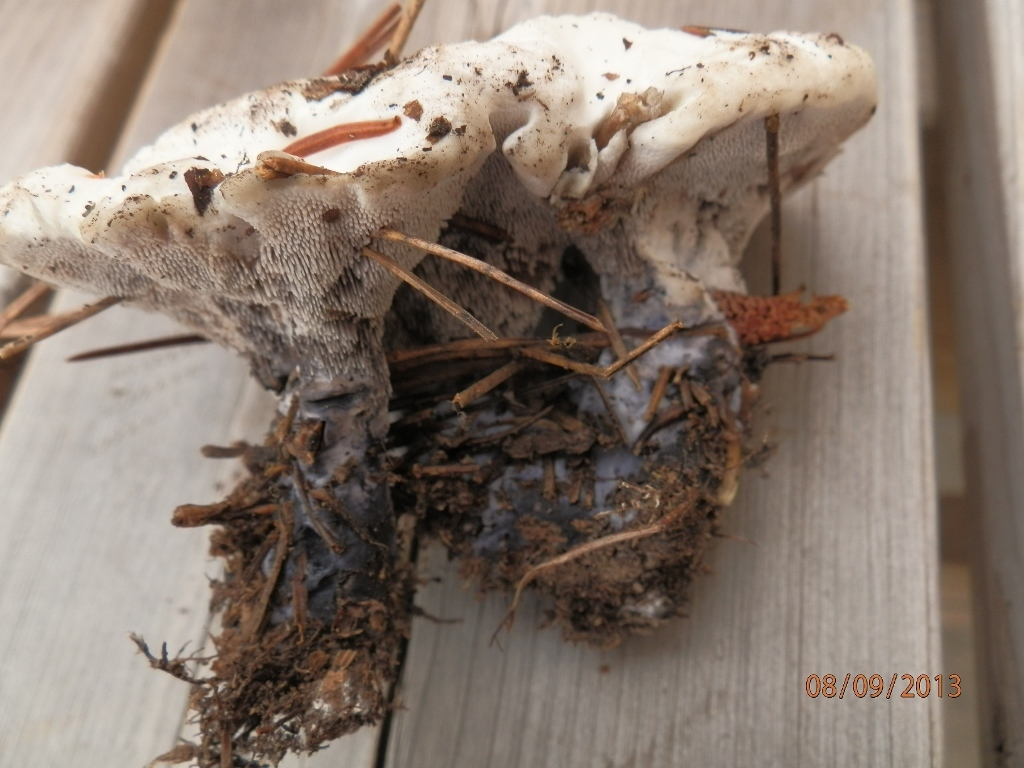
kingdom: Fungi
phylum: Basidiomycota
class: Agaricomycetes
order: Thelephorales
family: Bankeraceae
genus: Hydnellum
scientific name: Hydnellum suaveolens
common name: Sweetgrass hydnellum
